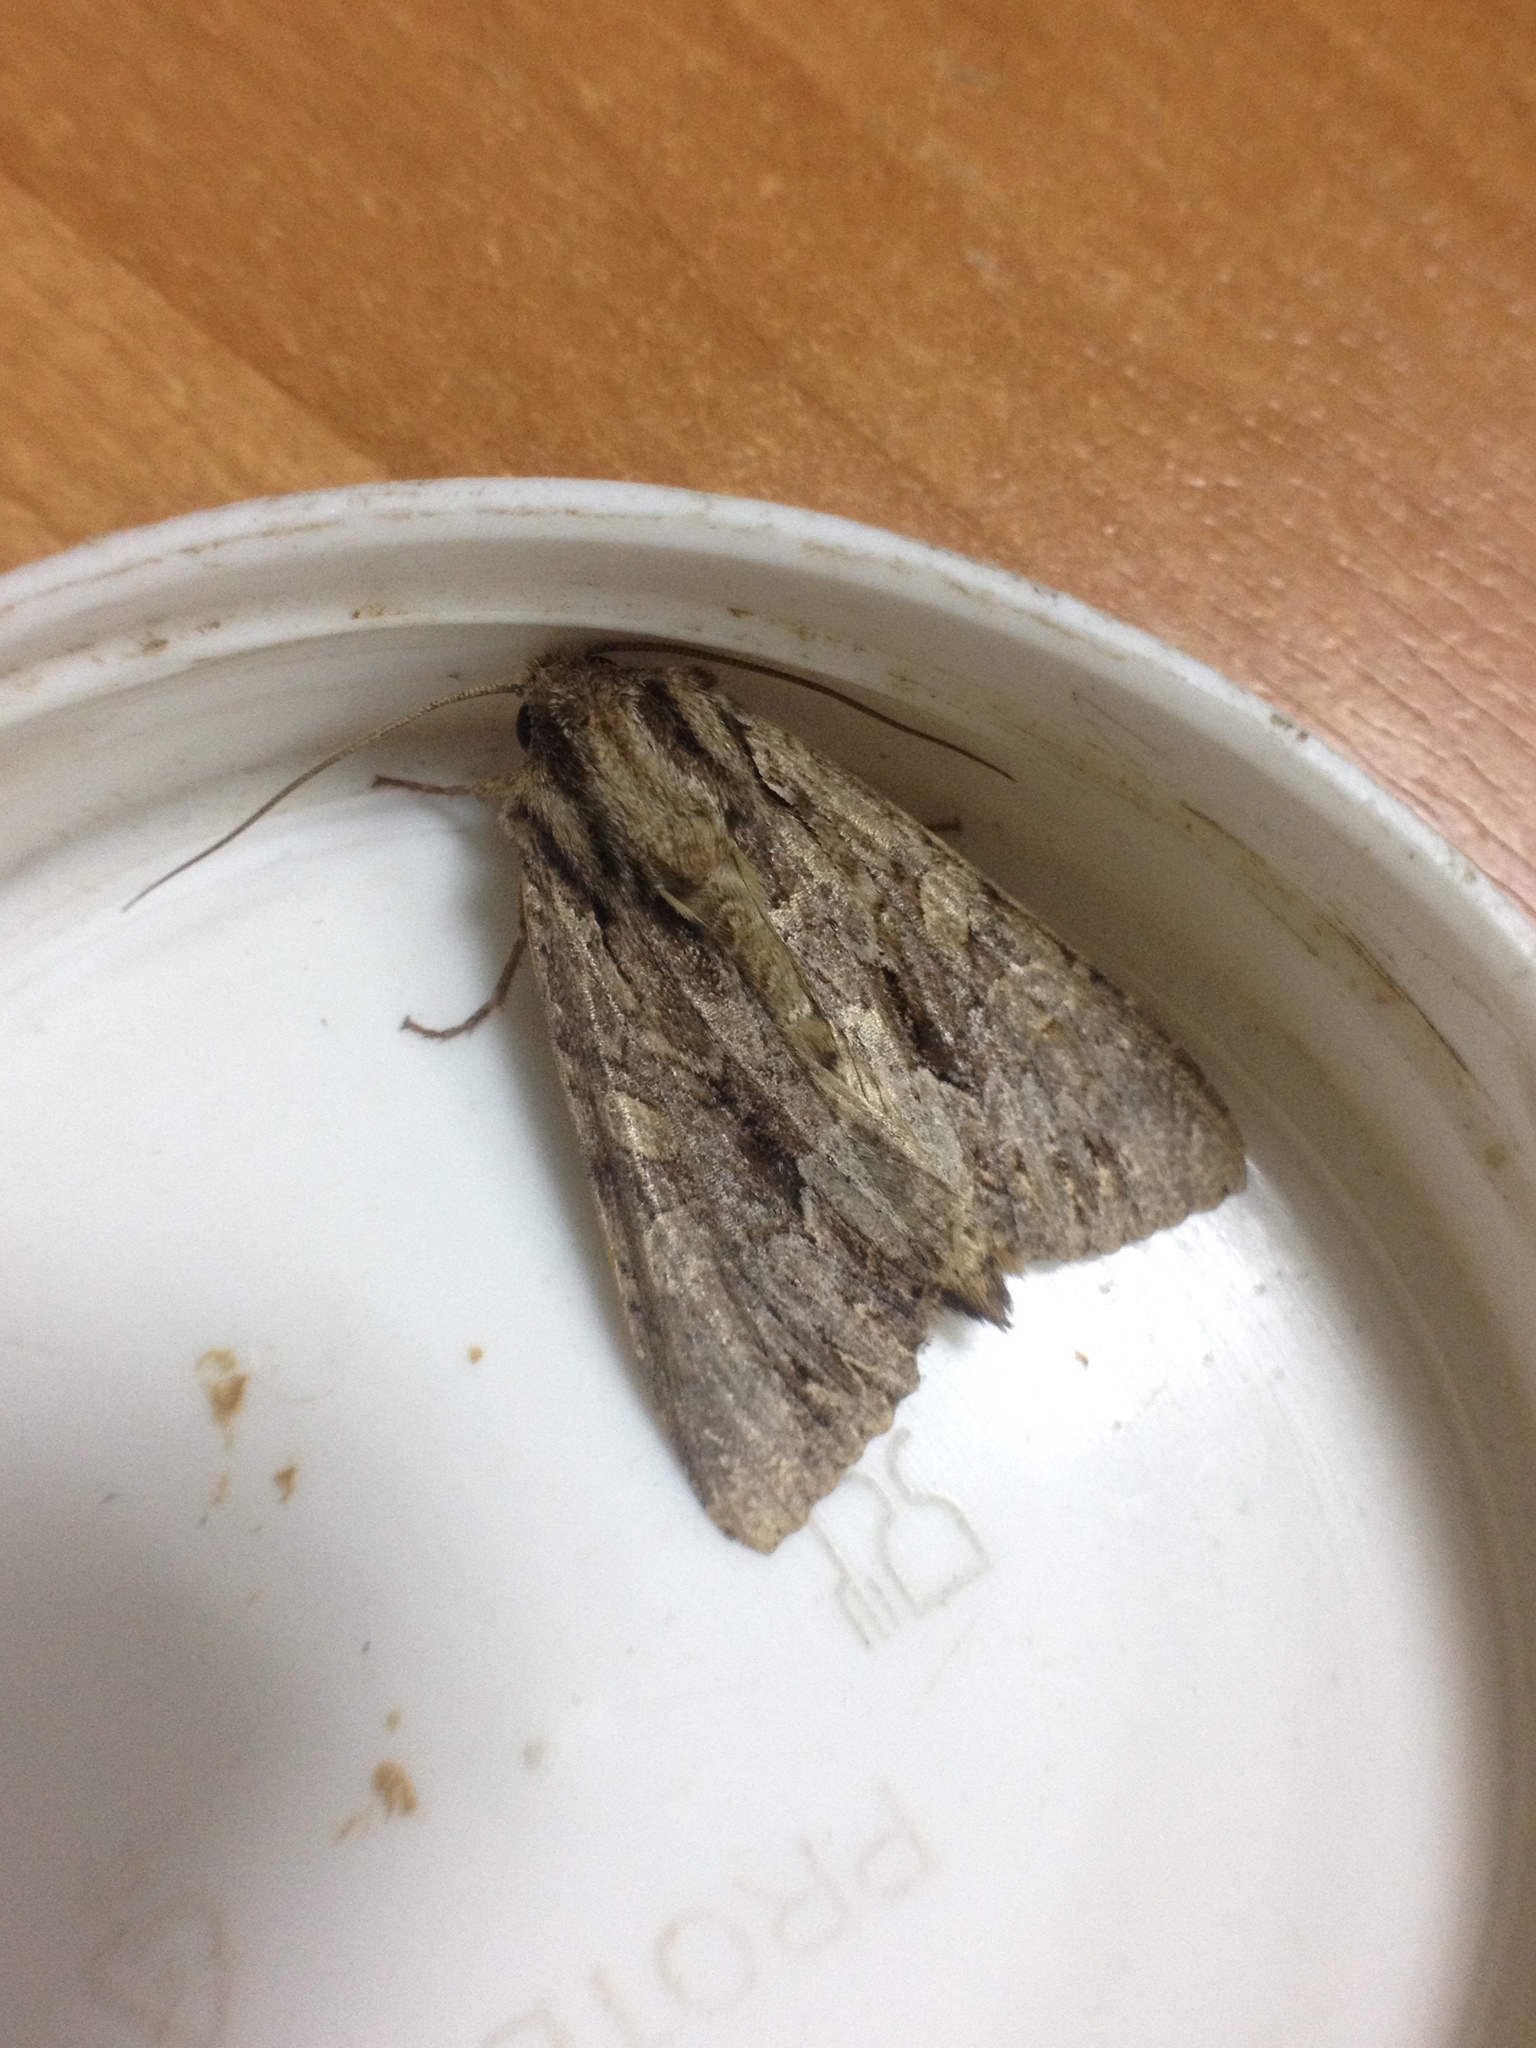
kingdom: Animalia
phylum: Arthropoda
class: Insecta
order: Lepidoptera
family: Noctuidae
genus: Apamea
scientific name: Apamea monoglypha
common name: Dark arches
